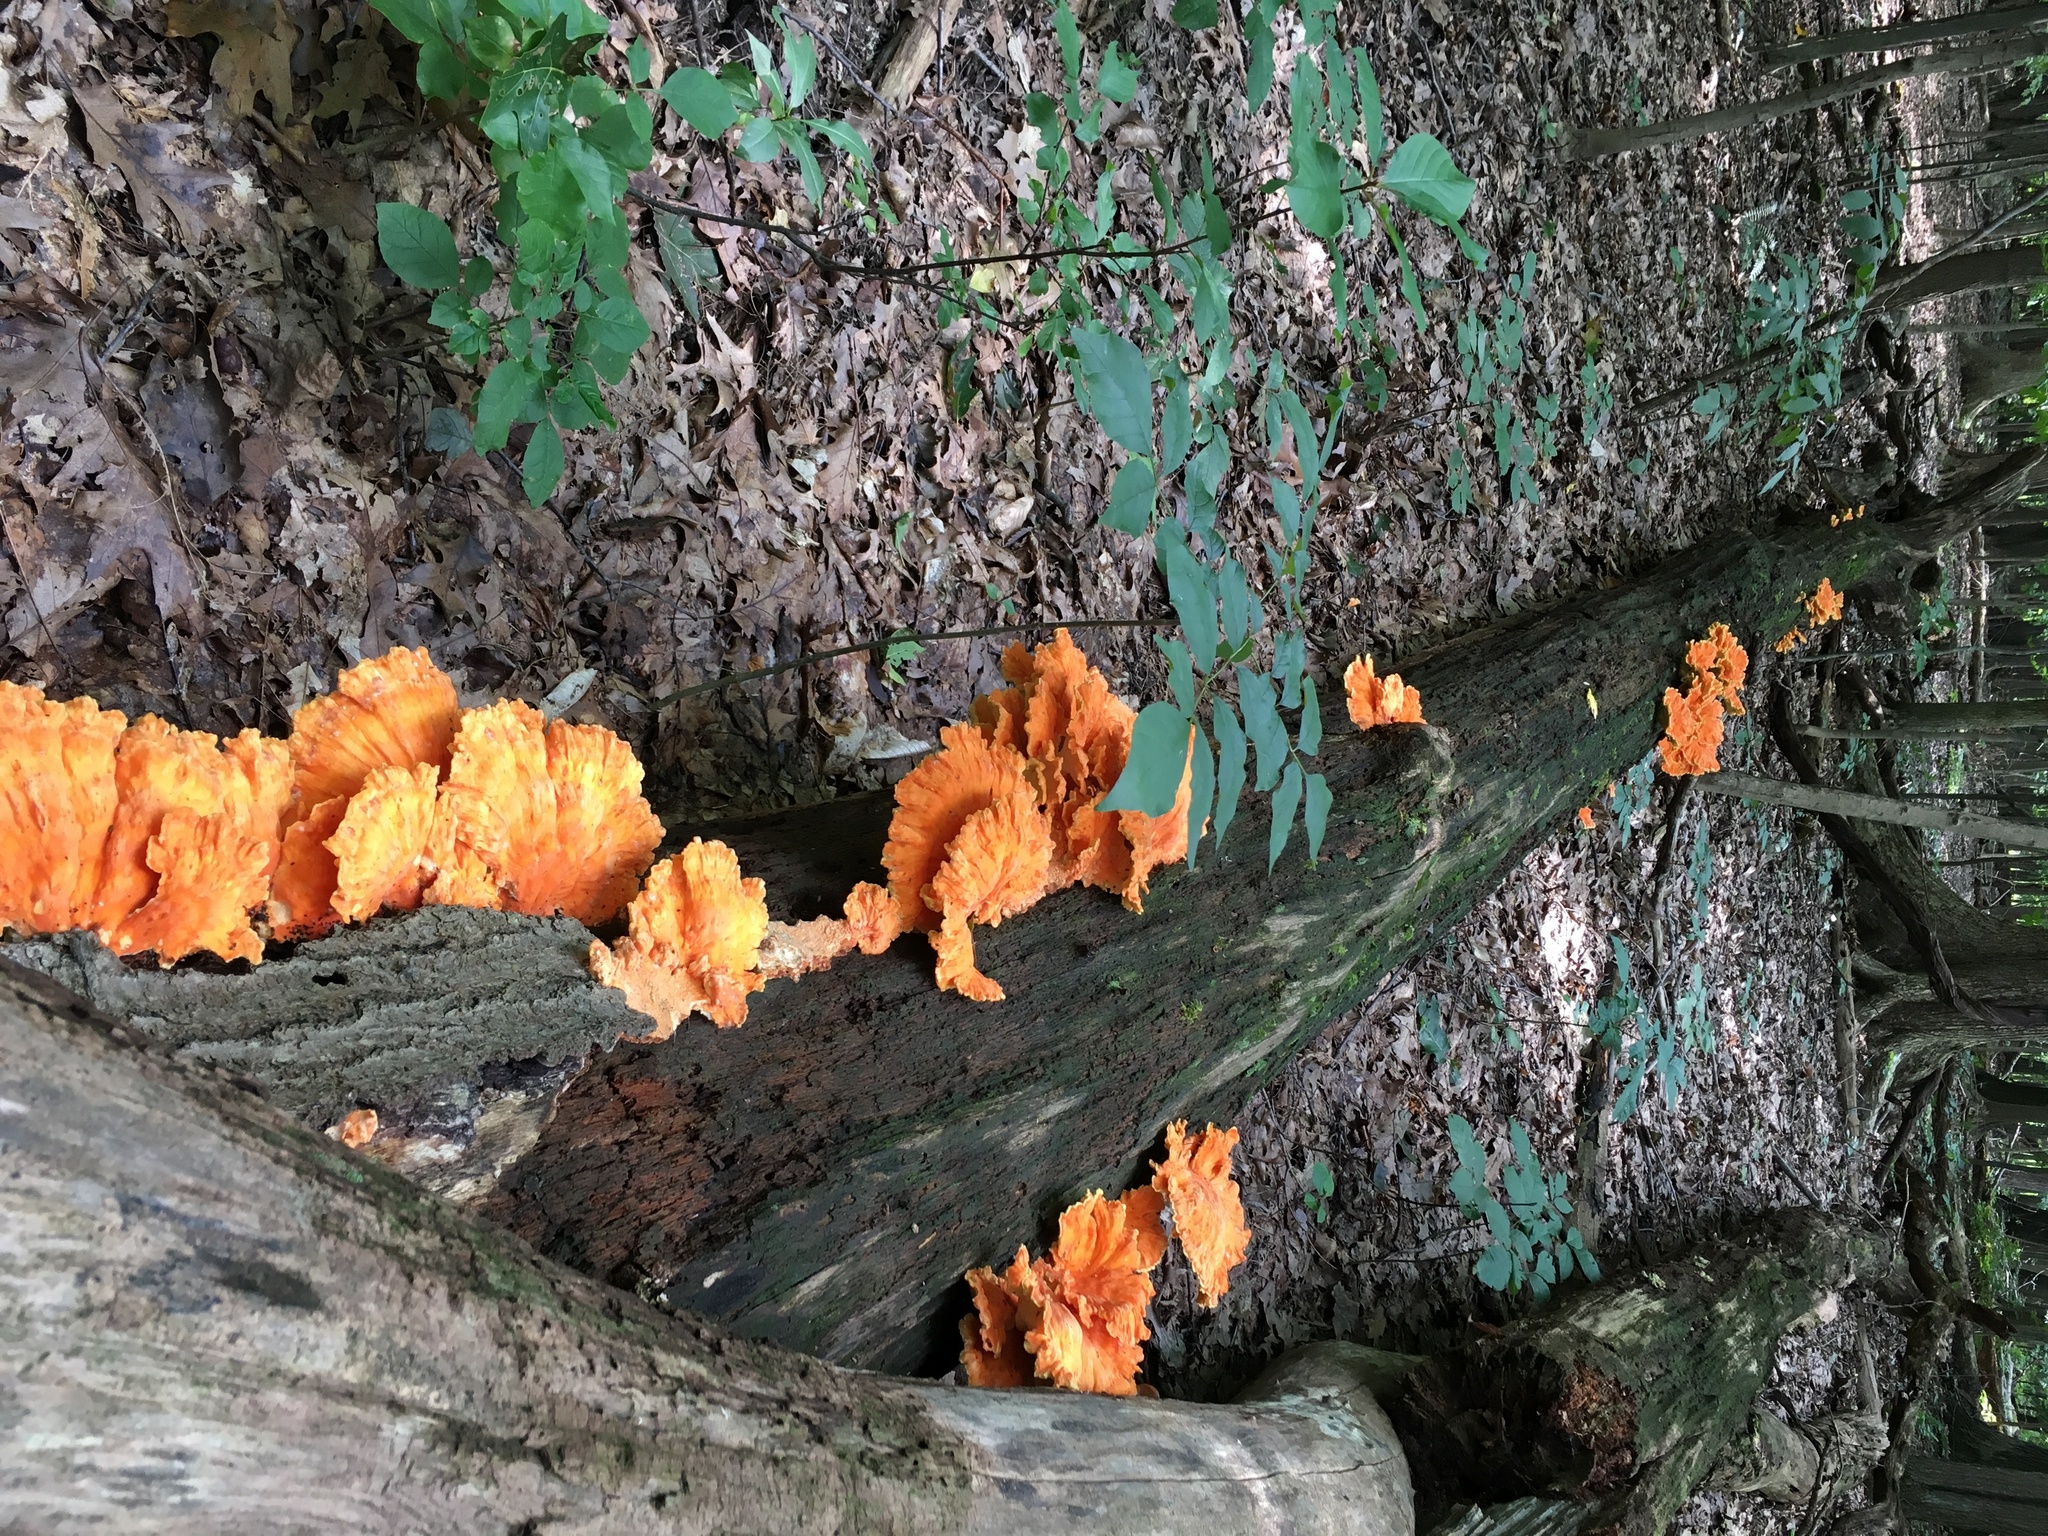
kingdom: Fungi
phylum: Basidiomycota
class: Agaricomycetes
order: Polyporales
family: Laetiporaceae
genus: Laetiporus
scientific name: Laetiporus sulphureus
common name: Chicken of the woods
